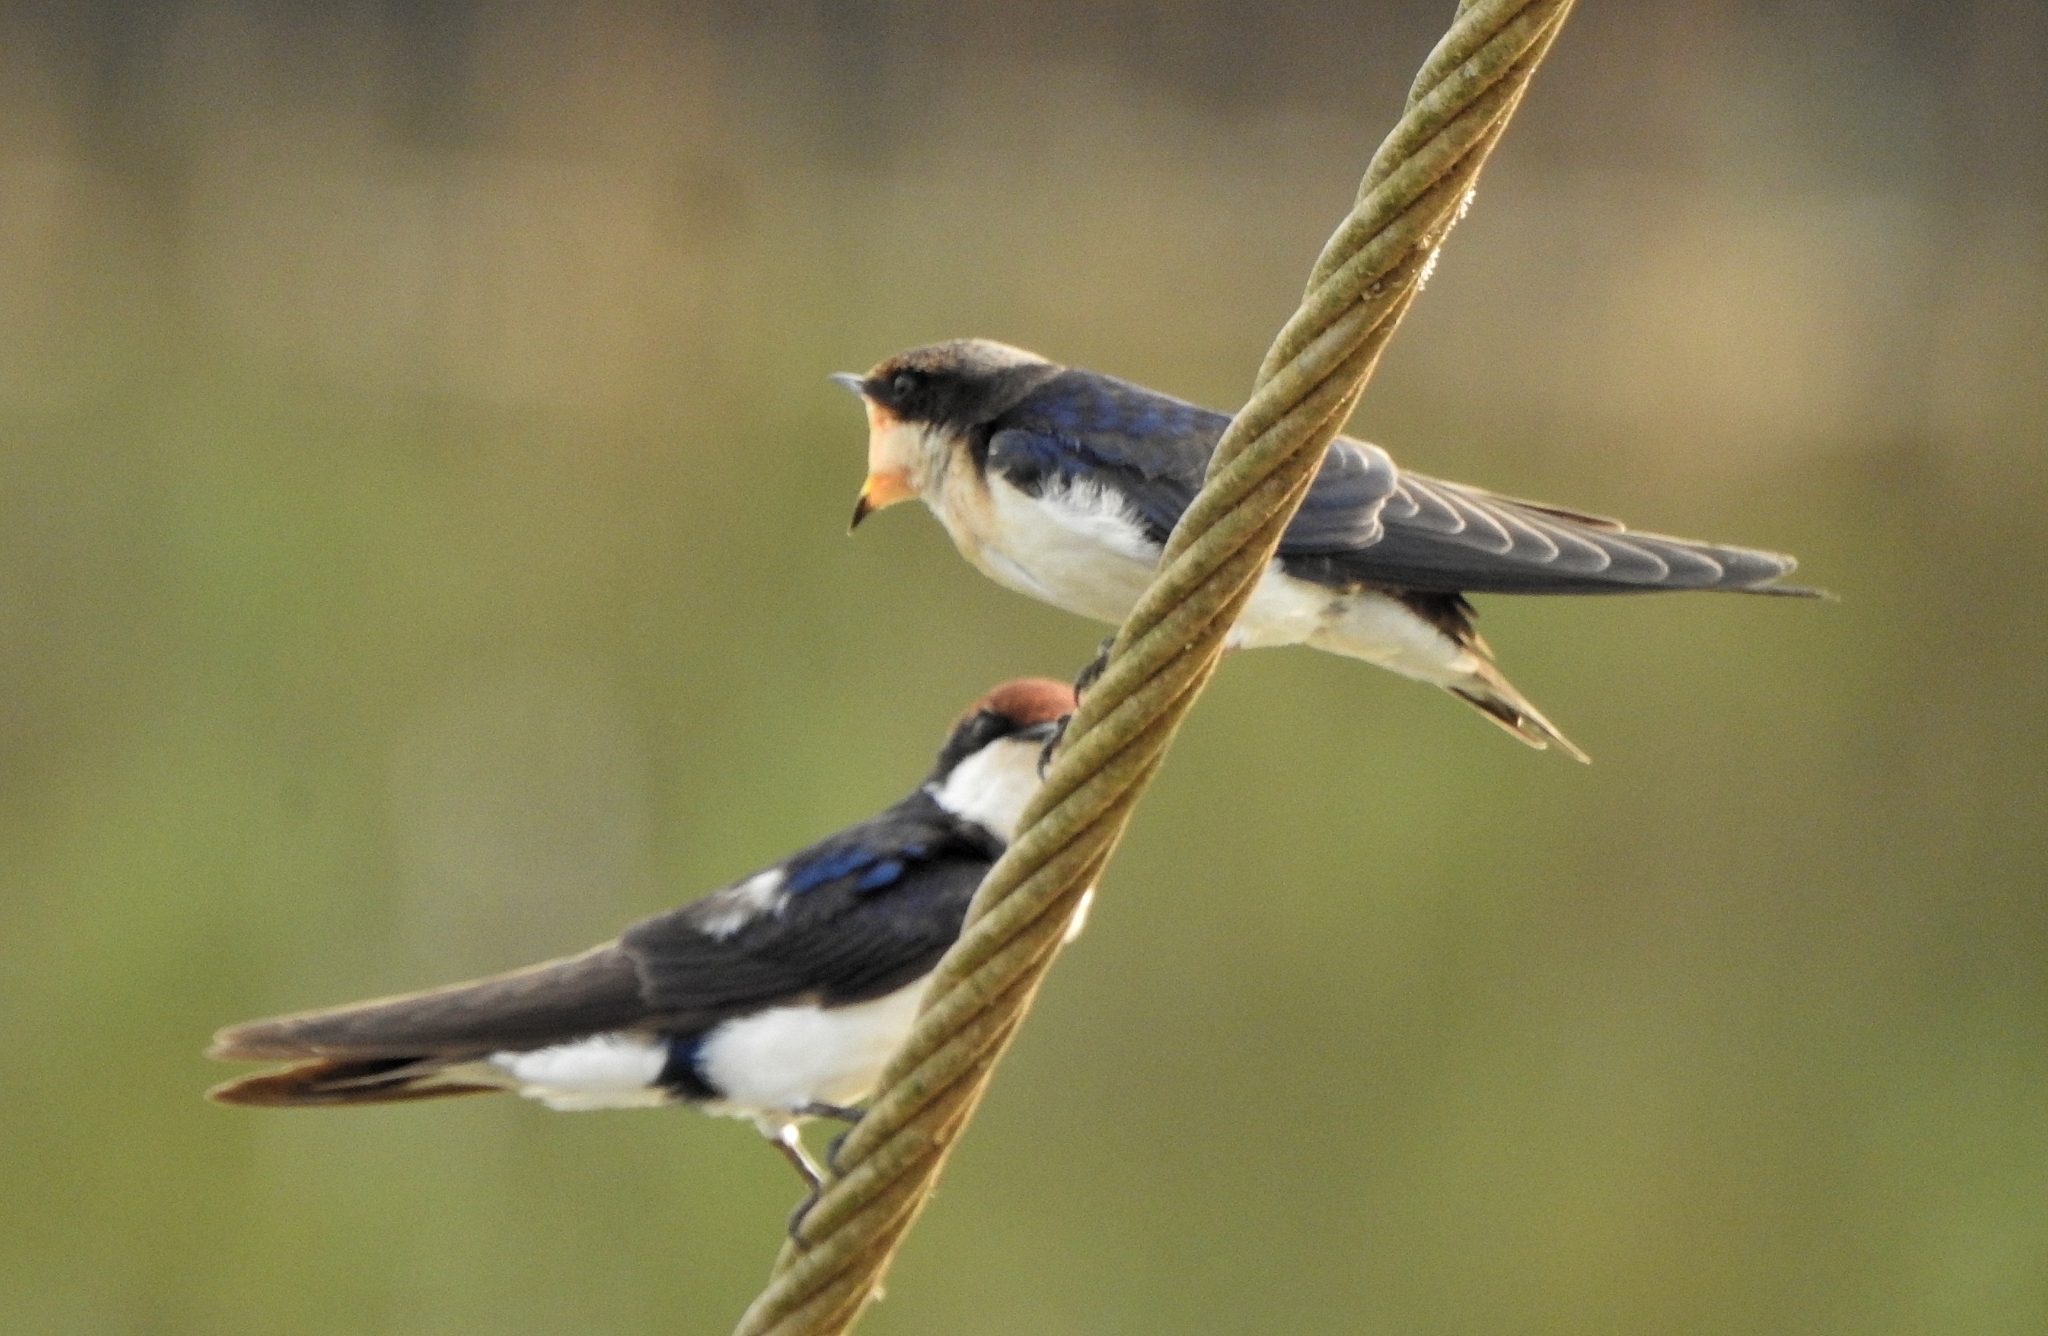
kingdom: Animalia
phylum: Chordata
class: Aves
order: Passeriformes
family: Hirundinidae
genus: Hirundo
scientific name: Hirundo smithii
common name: Wire-tailed swallow
